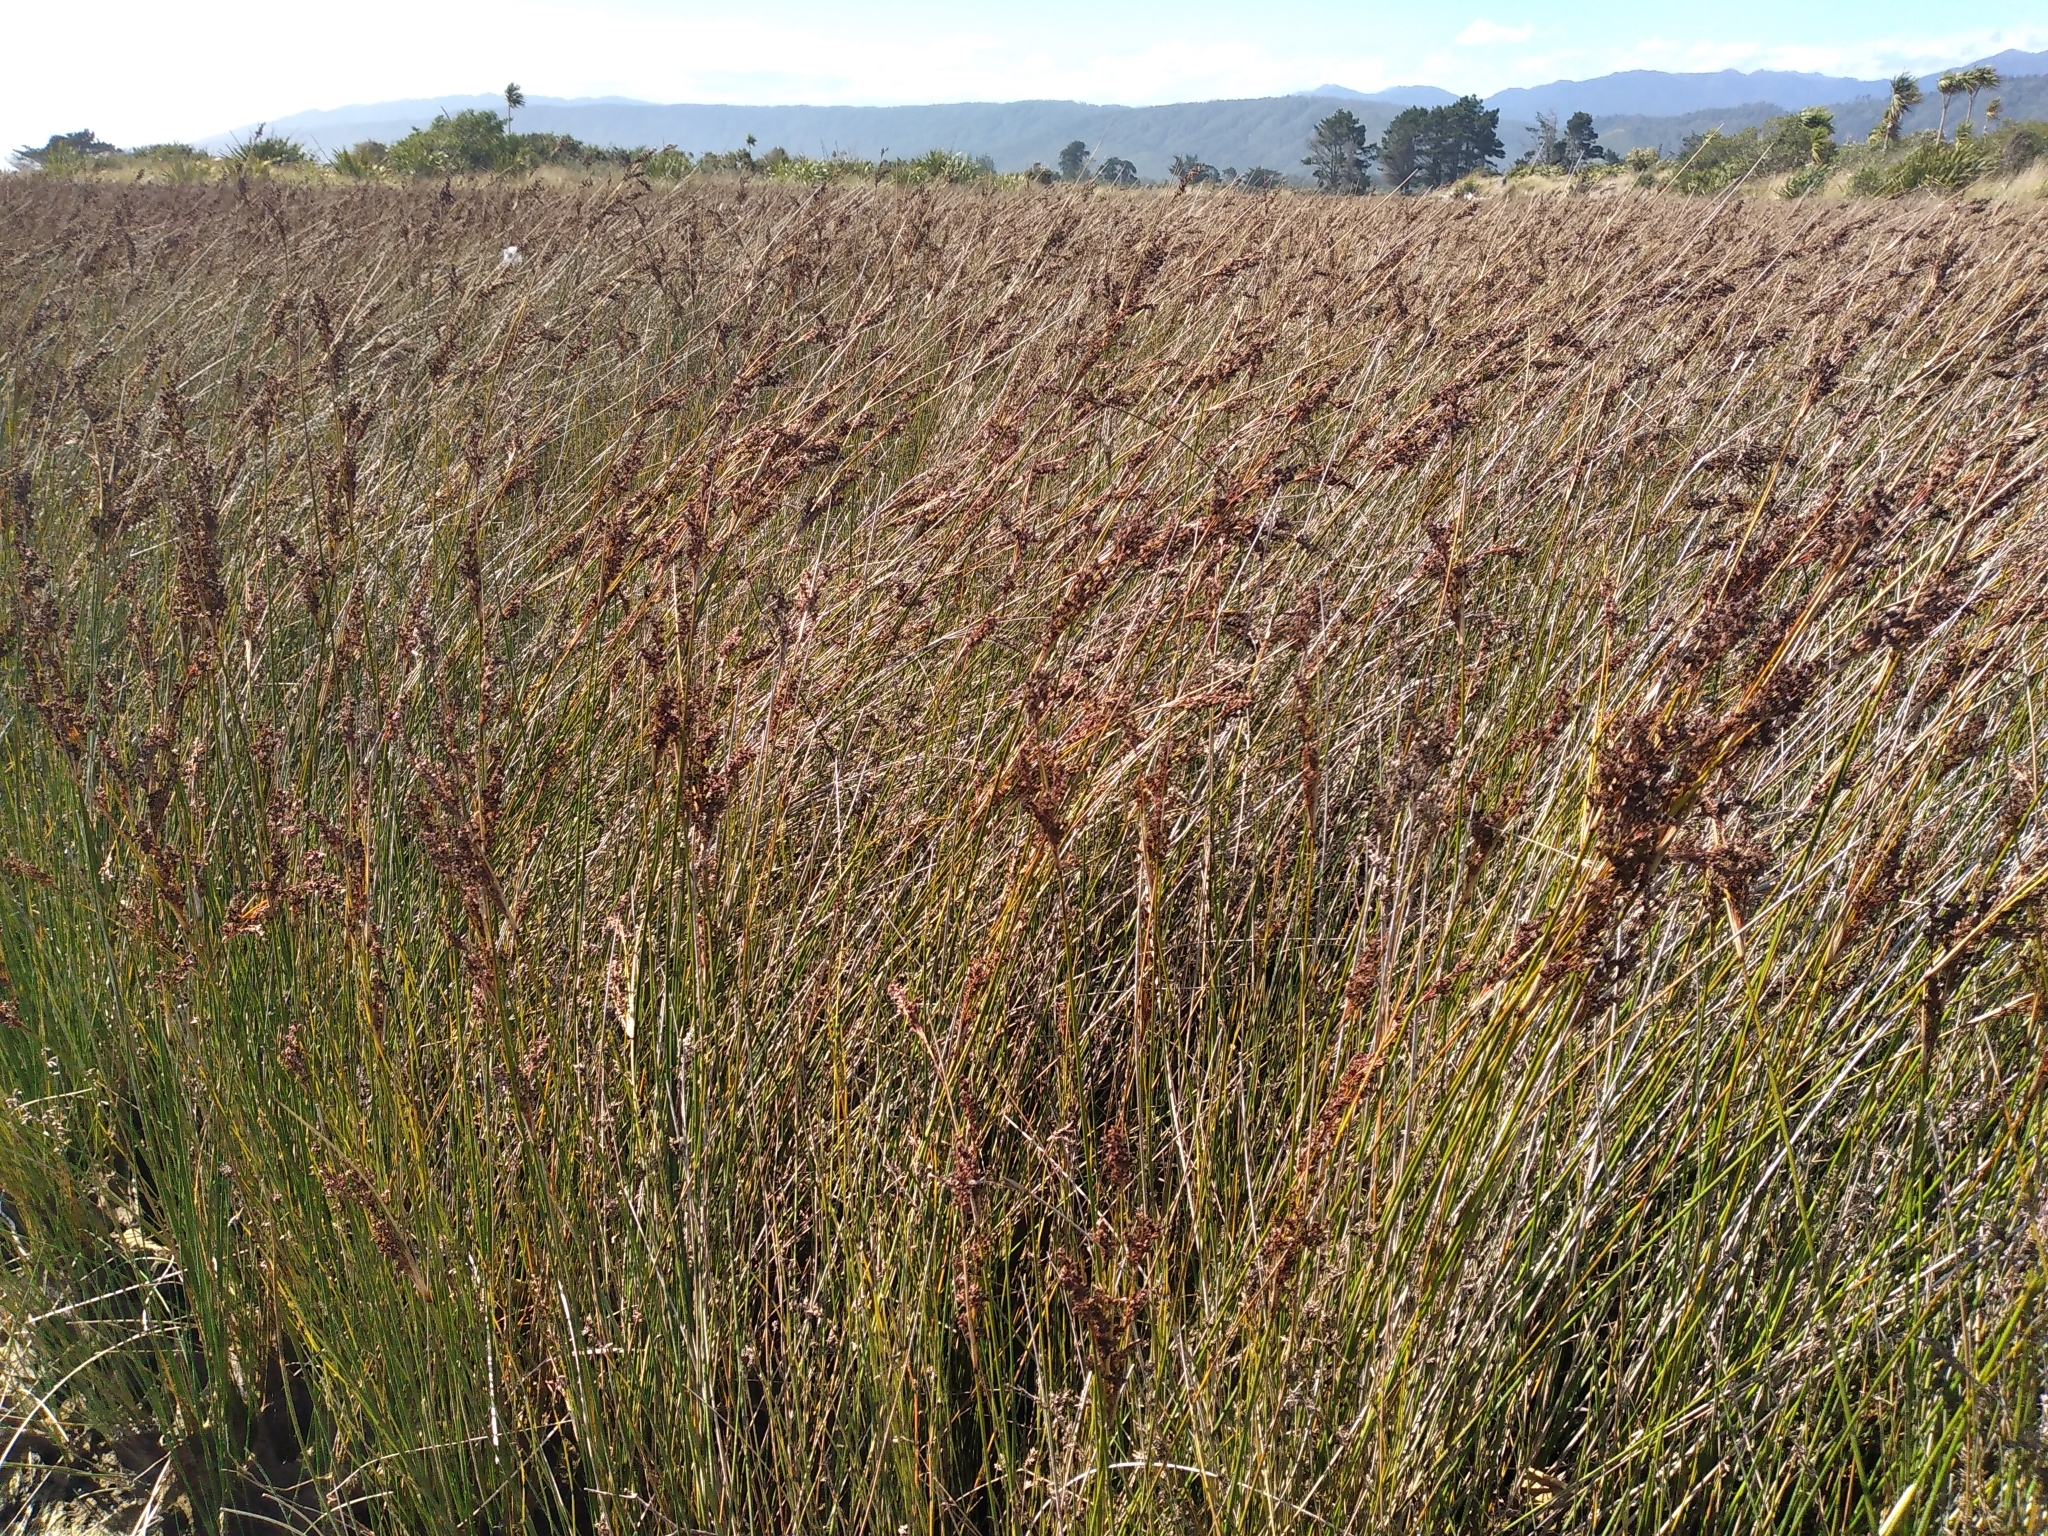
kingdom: Plantae
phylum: Tracheophyta
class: Liliopsida
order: Poales
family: Juncaceae
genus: Juncus
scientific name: Juncus kraussii
